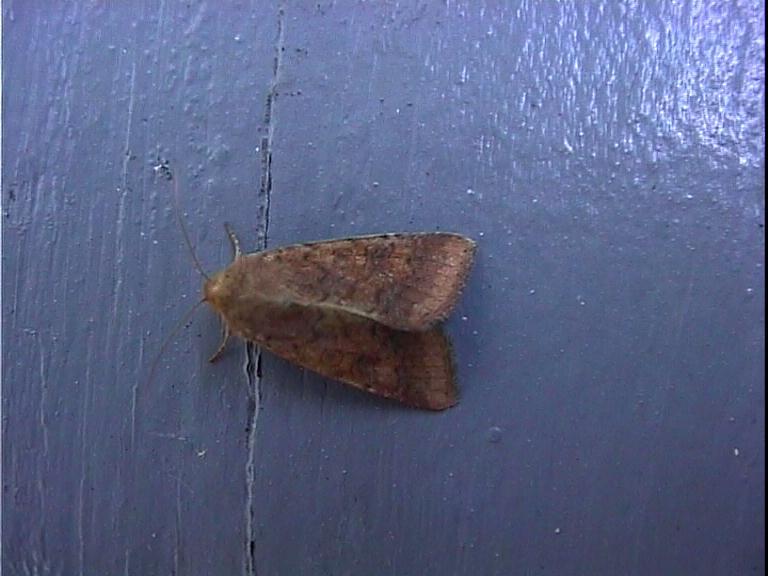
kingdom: Animalia
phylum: Arthropoda
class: Insecta
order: Lepidoptera
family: Noctuidae
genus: Helicoverpa
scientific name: Helicoverpa armigera
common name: Cotton bollworm
